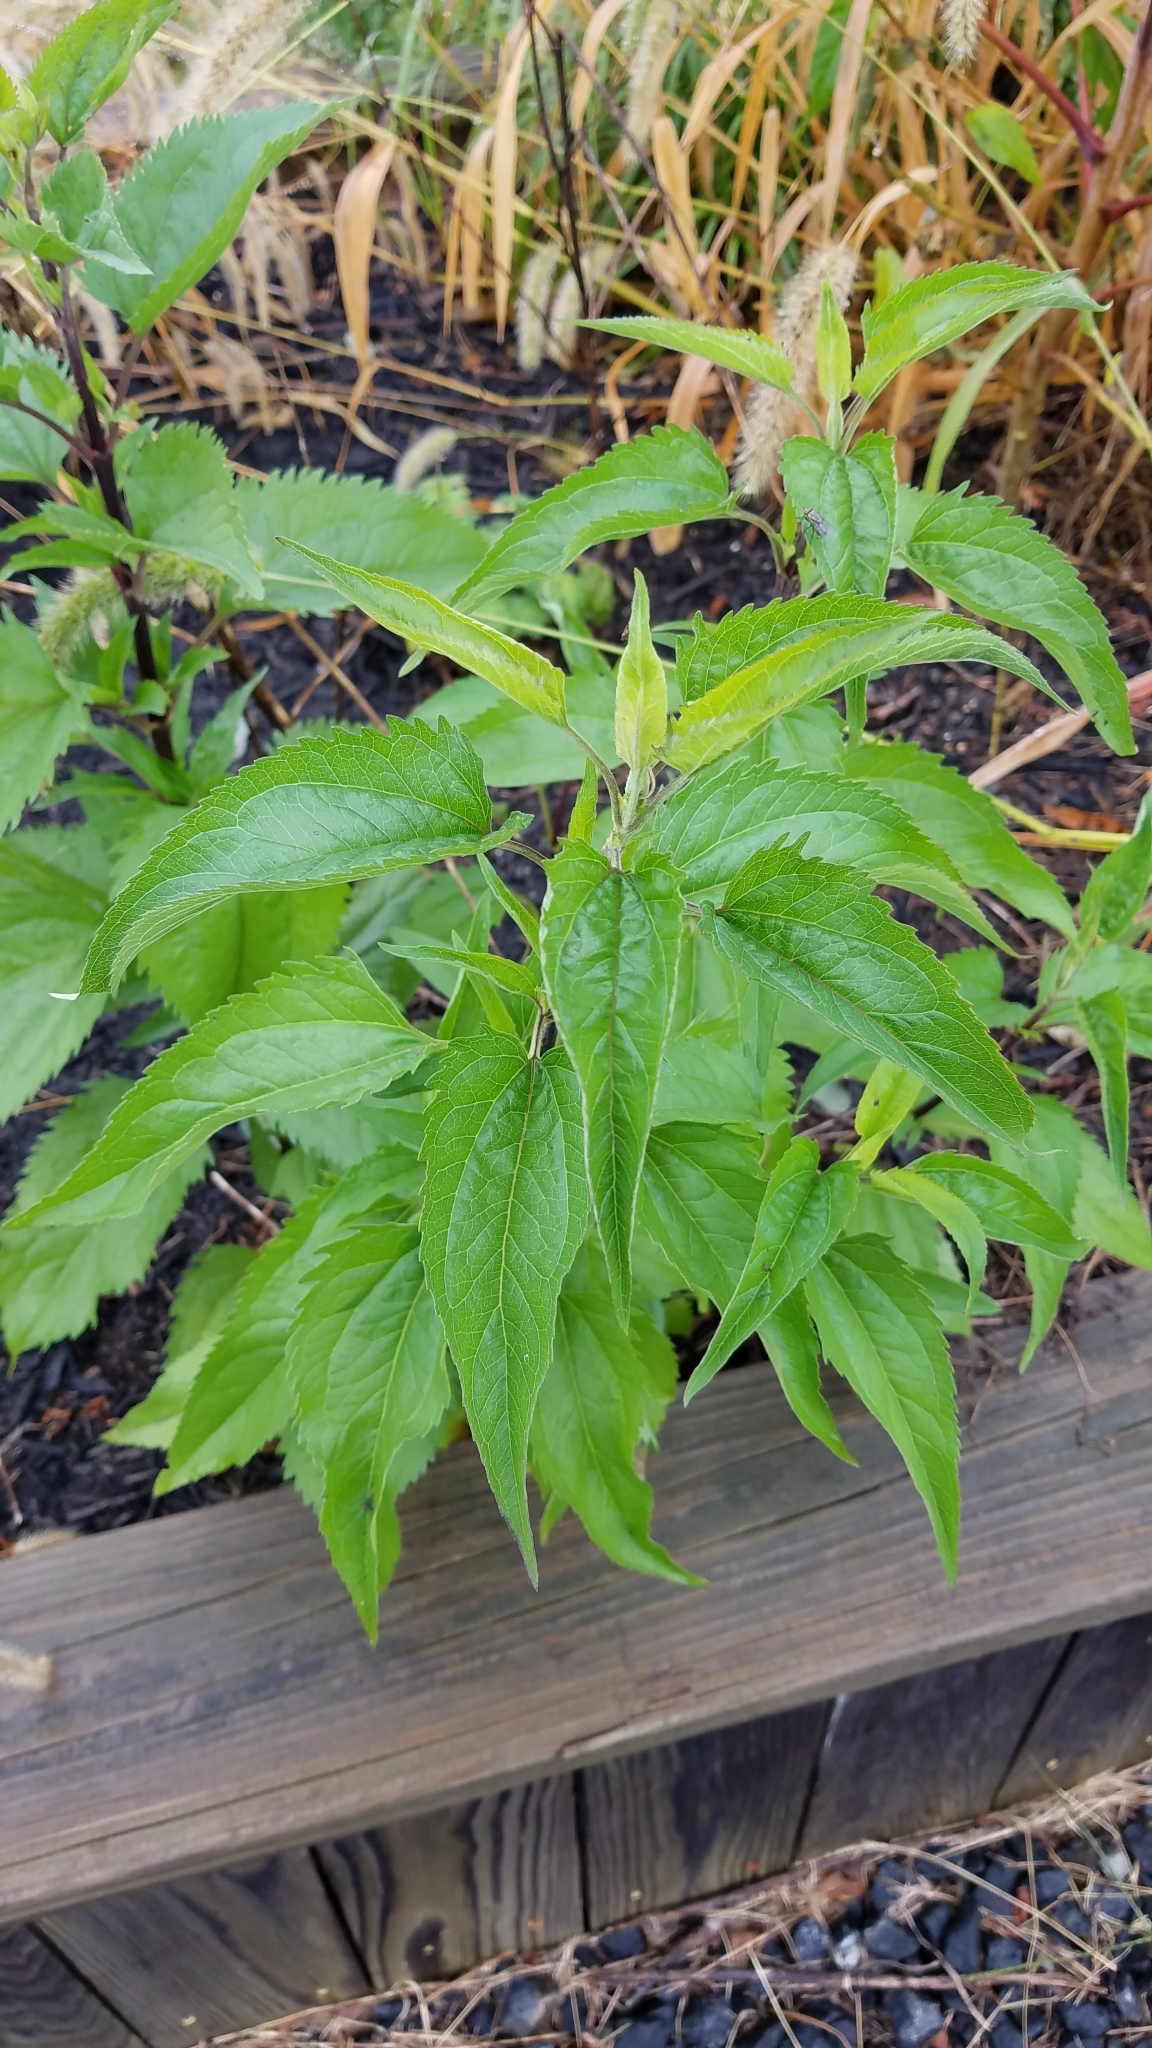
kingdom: Plantae
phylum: Tracheophyta
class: Magnoliopsida
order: Asterales
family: Asteraceae
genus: Eupatorium
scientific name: Eupatorium serotinum
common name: Late boneset
